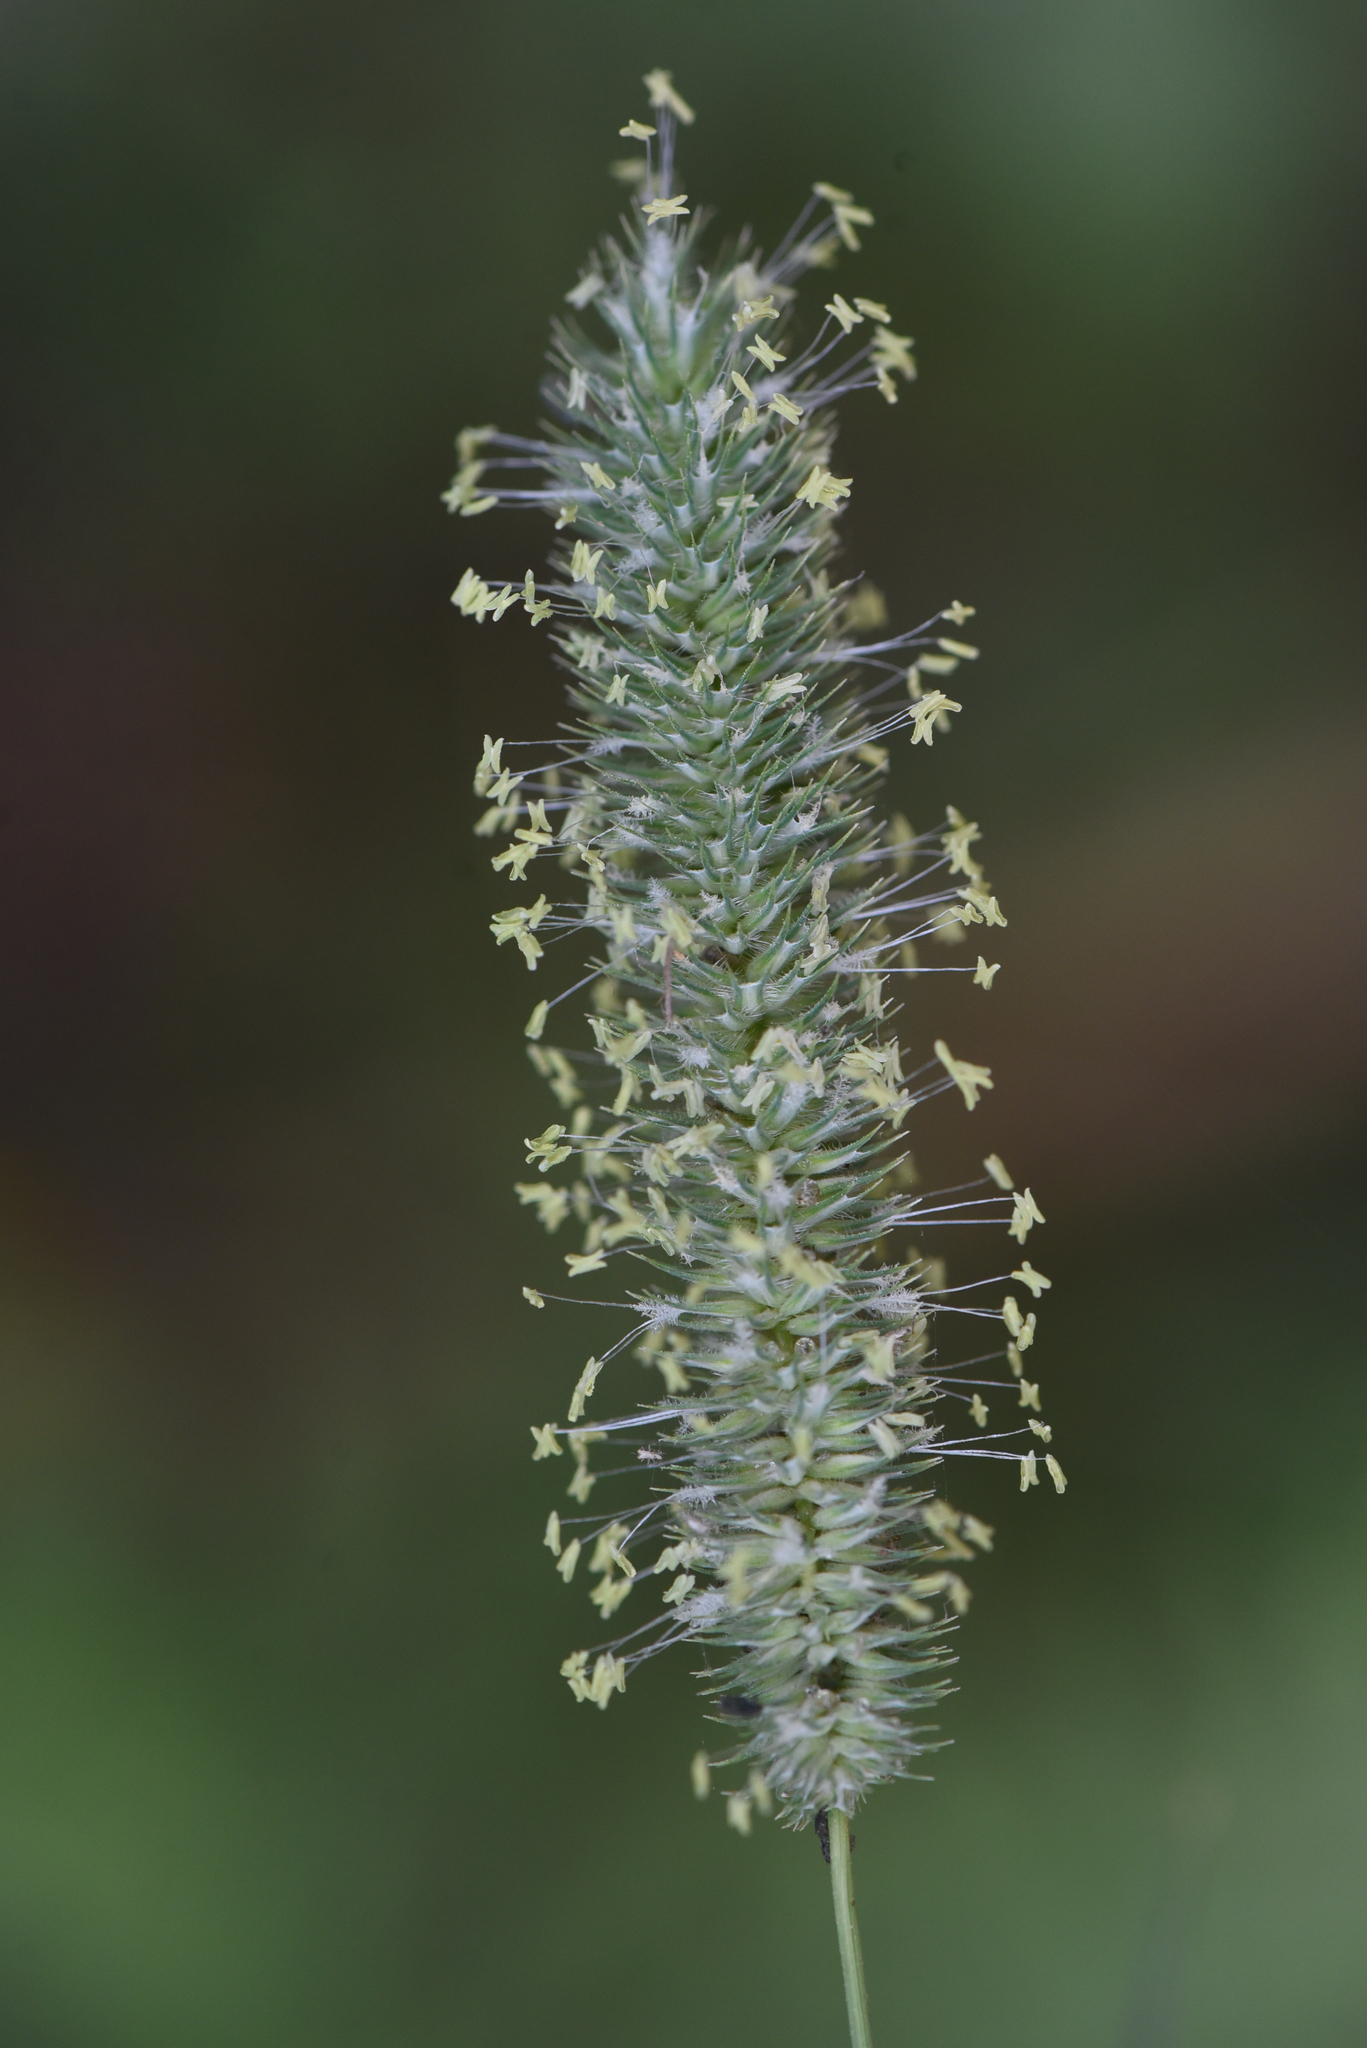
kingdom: Plantae
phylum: Tracheophyta
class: Liliopsida
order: Poales
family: Poaceae
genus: Phleum
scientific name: Phleum pratense
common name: Timothy grass
